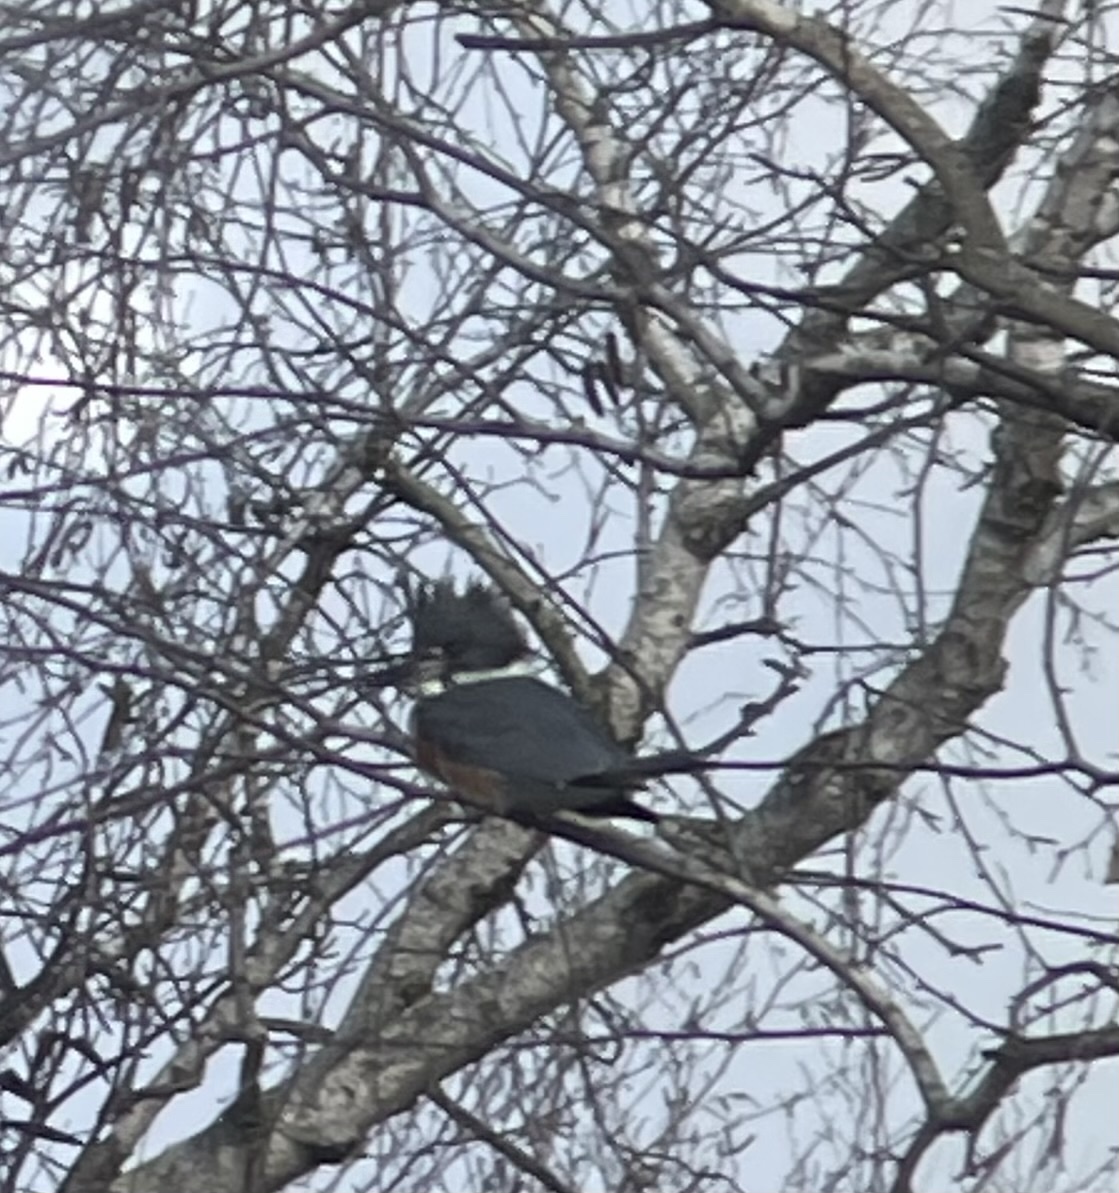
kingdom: Animalia
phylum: Chordata
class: Aves
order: Coraciiformes
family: Alcedinidae
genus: Megaceryle
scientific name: Megaceryle alcyon
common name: Belted kingfisher
